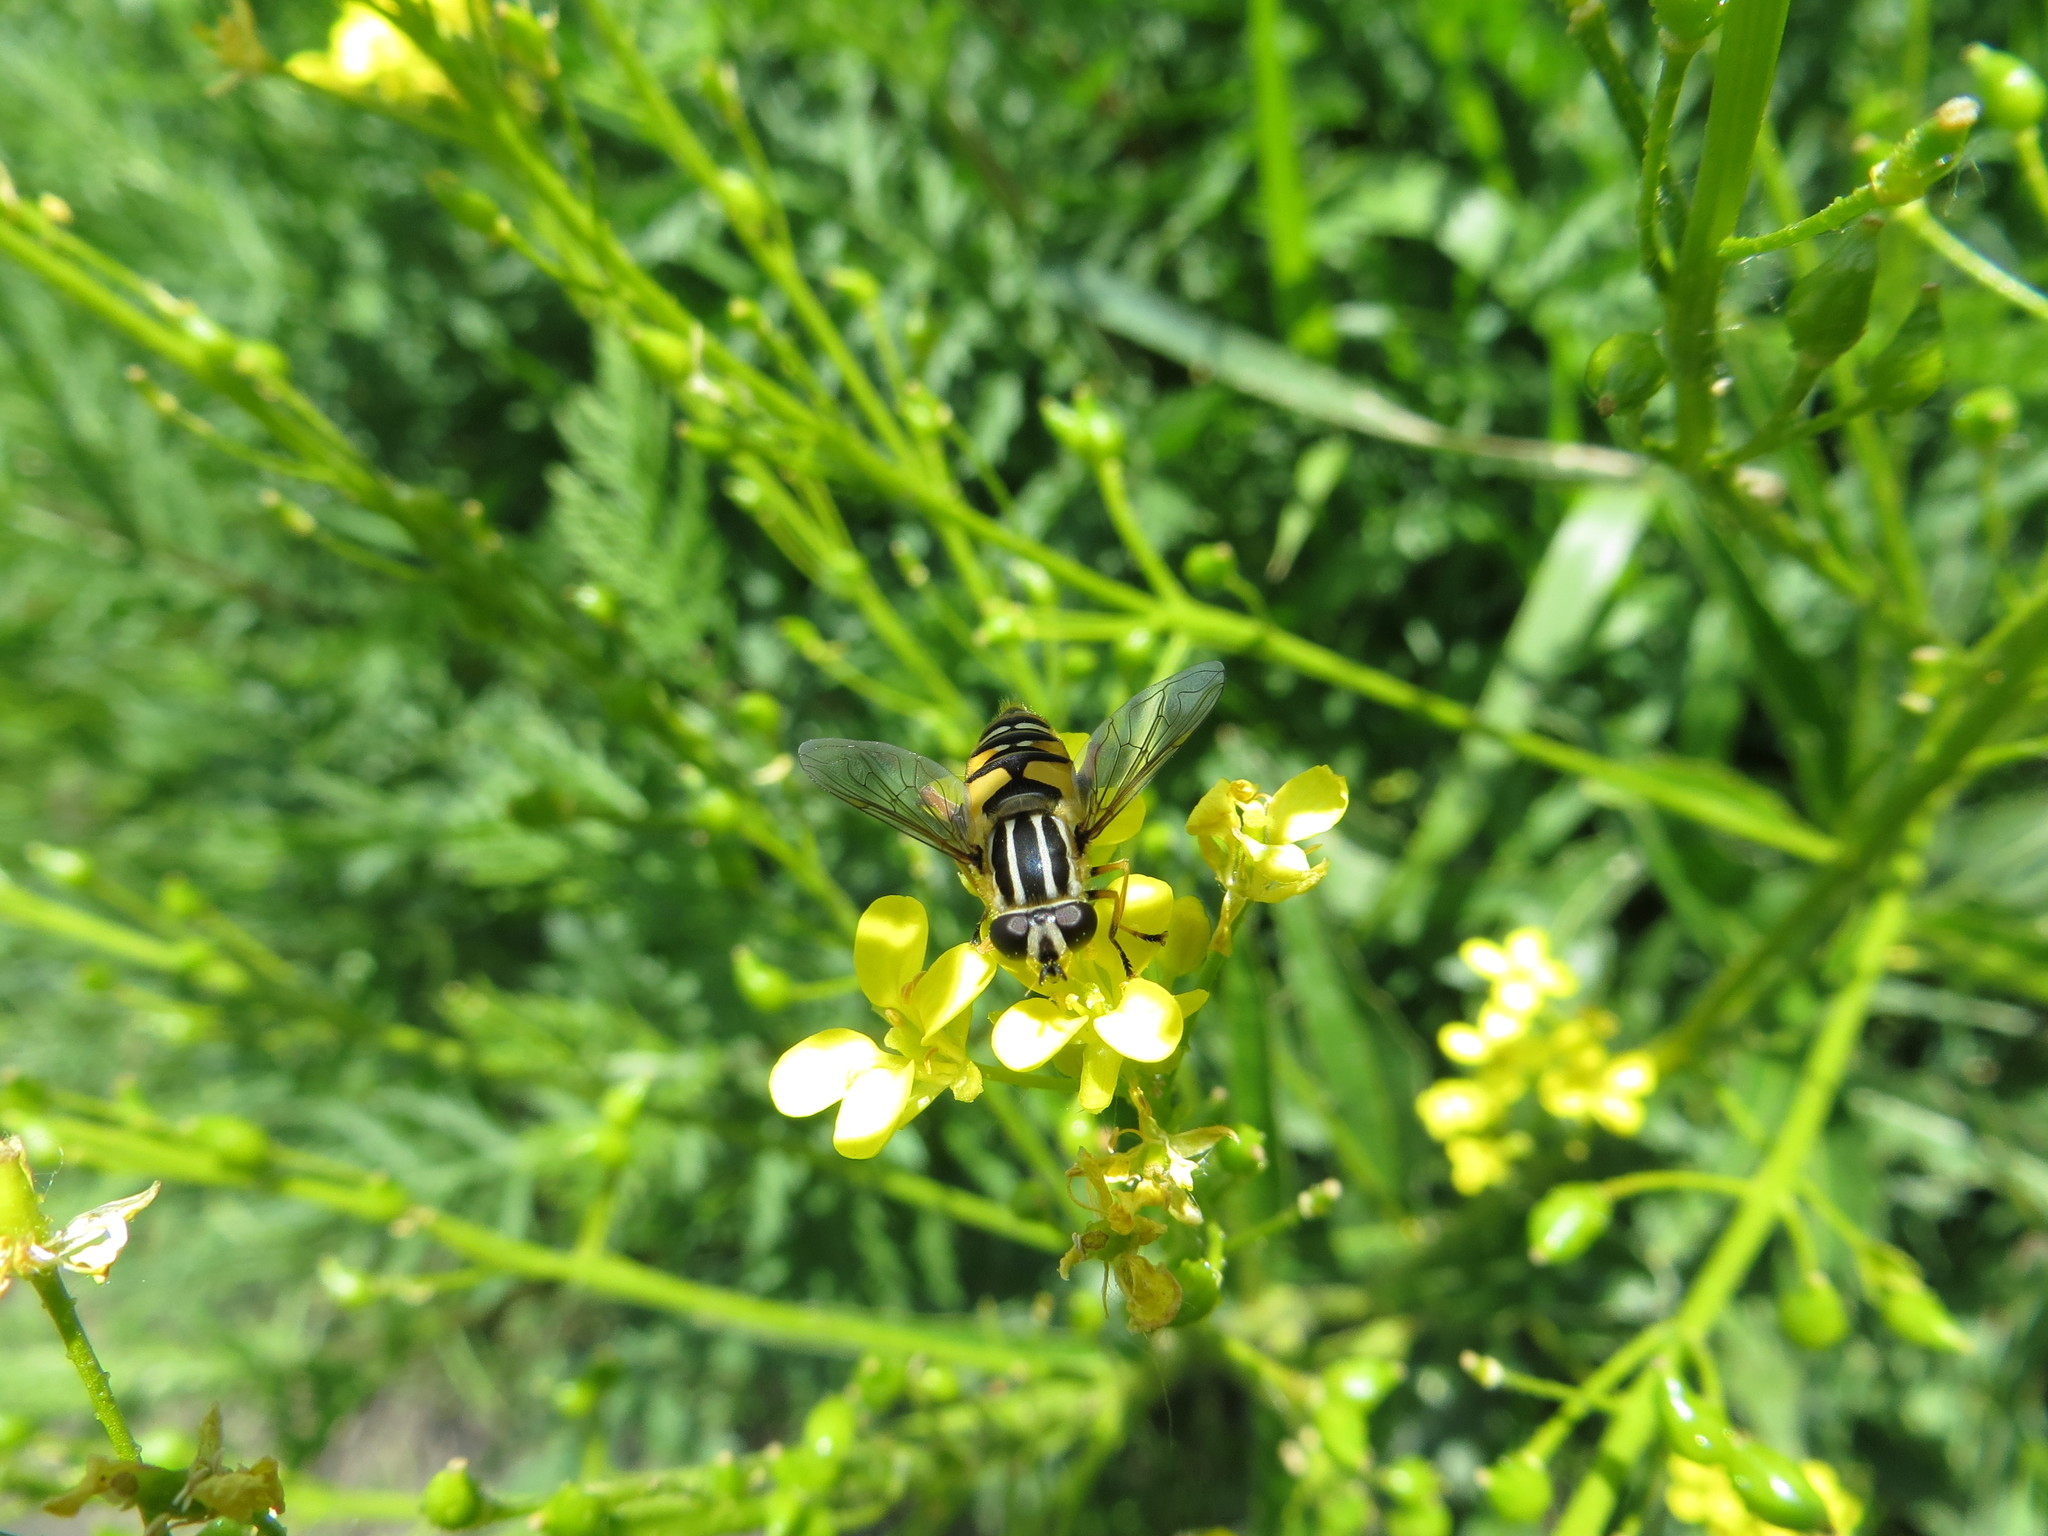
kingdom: Animalia
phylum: Arthropoda
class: Insecta
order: Diptera
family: Syrphidae
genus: Helophilus
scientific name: Helophilus pendulus
